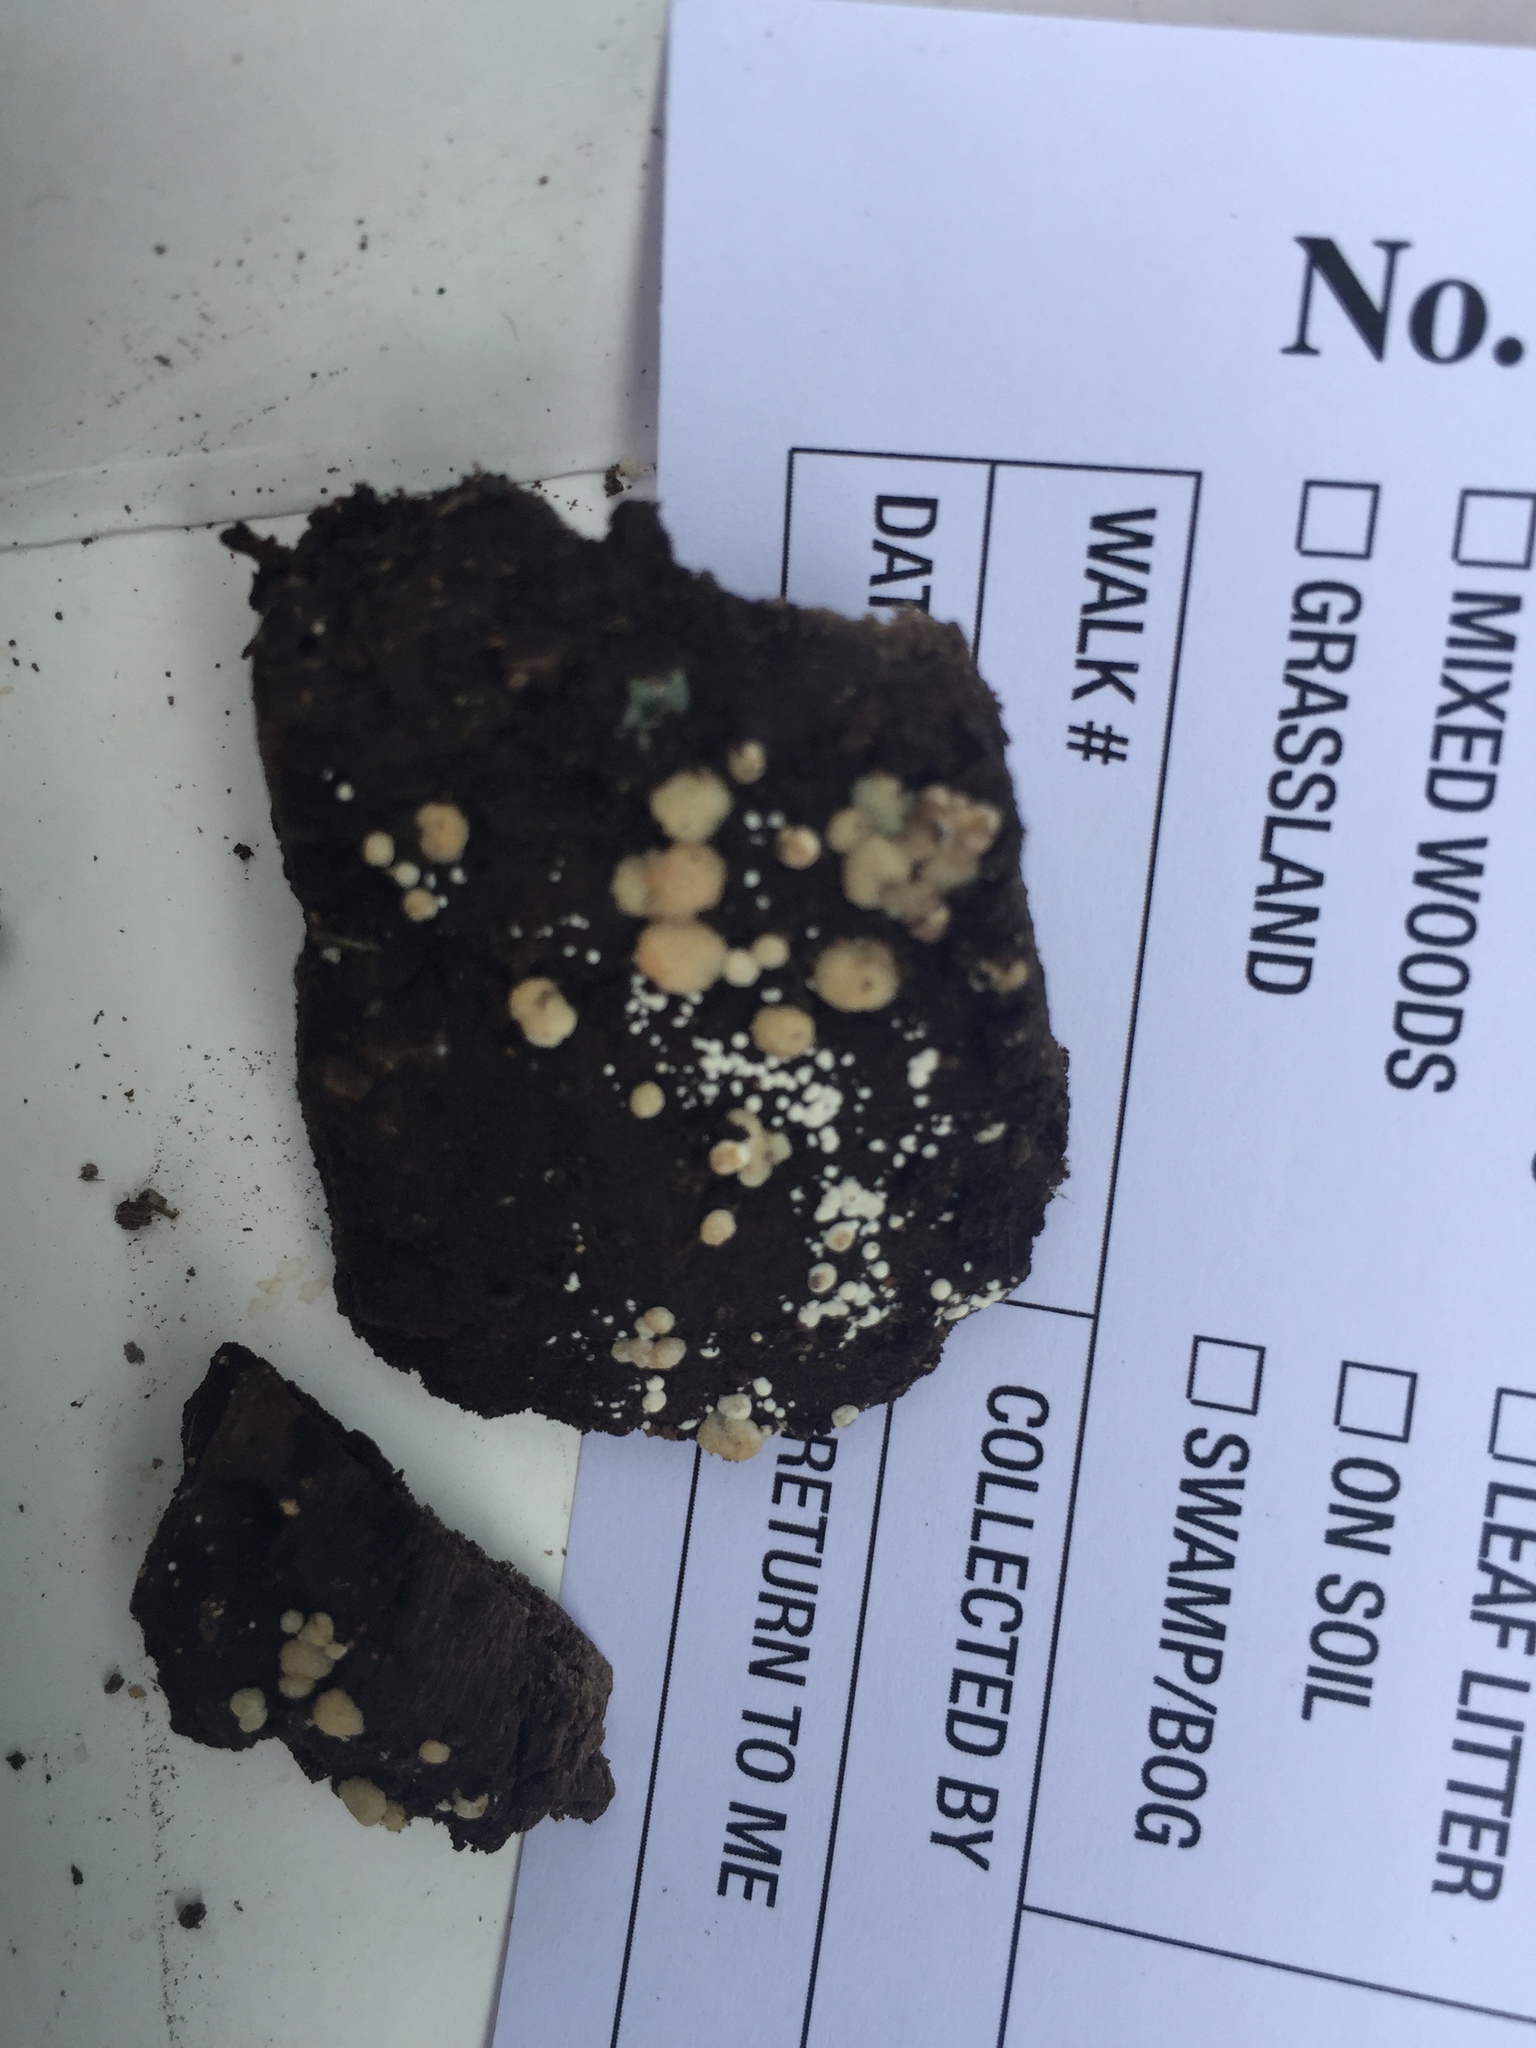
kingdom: Fungi
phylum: Ascomycota
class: Sordariomycetes
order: Hypocreales
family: Hypocreaceae
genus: Trichoderma
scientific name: Trichoderma americanum
